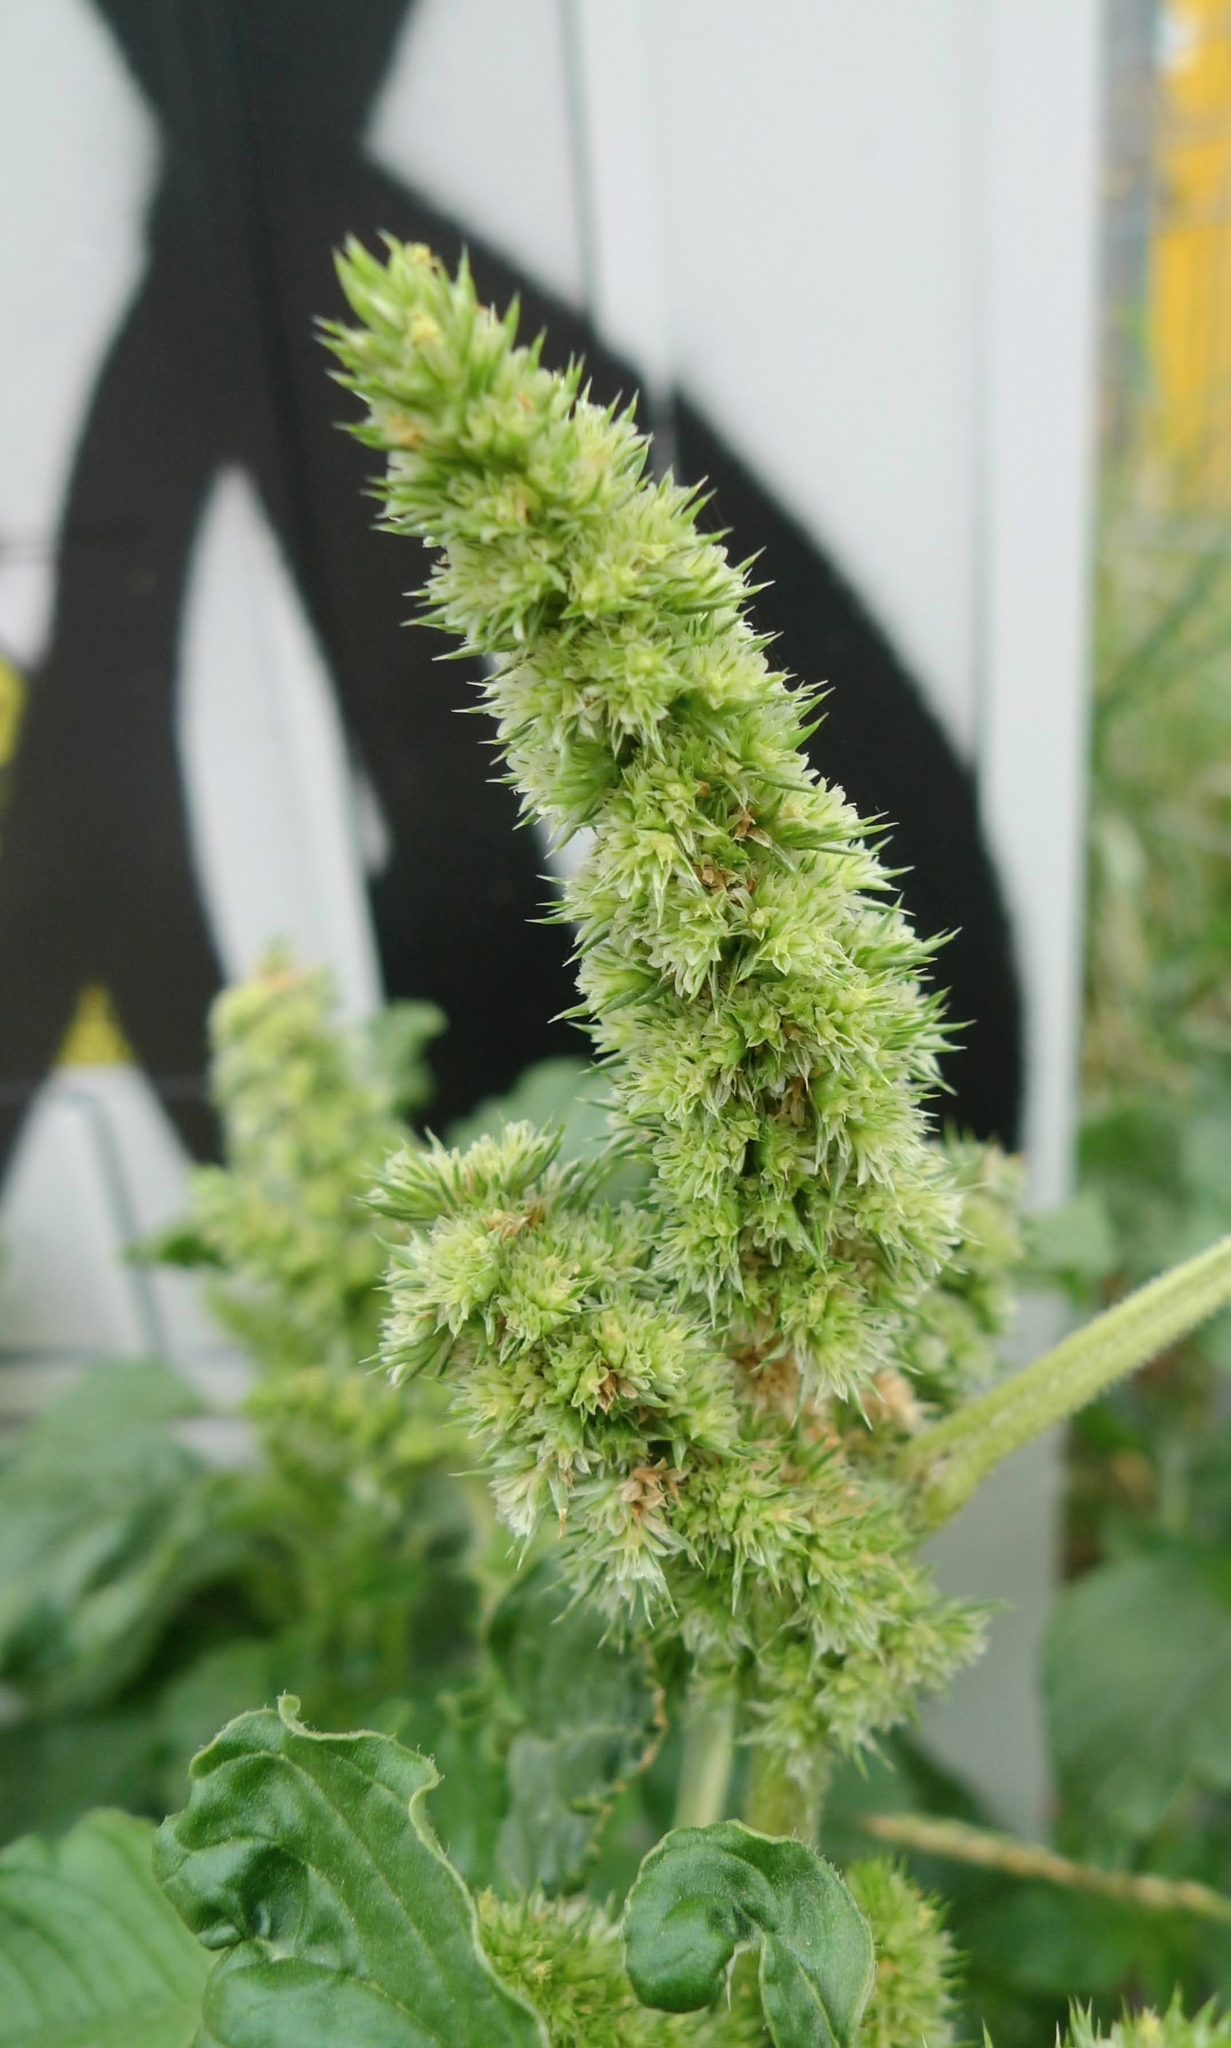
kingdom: Plantae
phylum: Tracheophyta
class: Magnoliopsida
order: Caryophyllales
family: Amaranthaceae
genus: Amaranthus
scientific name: Amaranthus retroflexus
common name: Redroot amaranth
